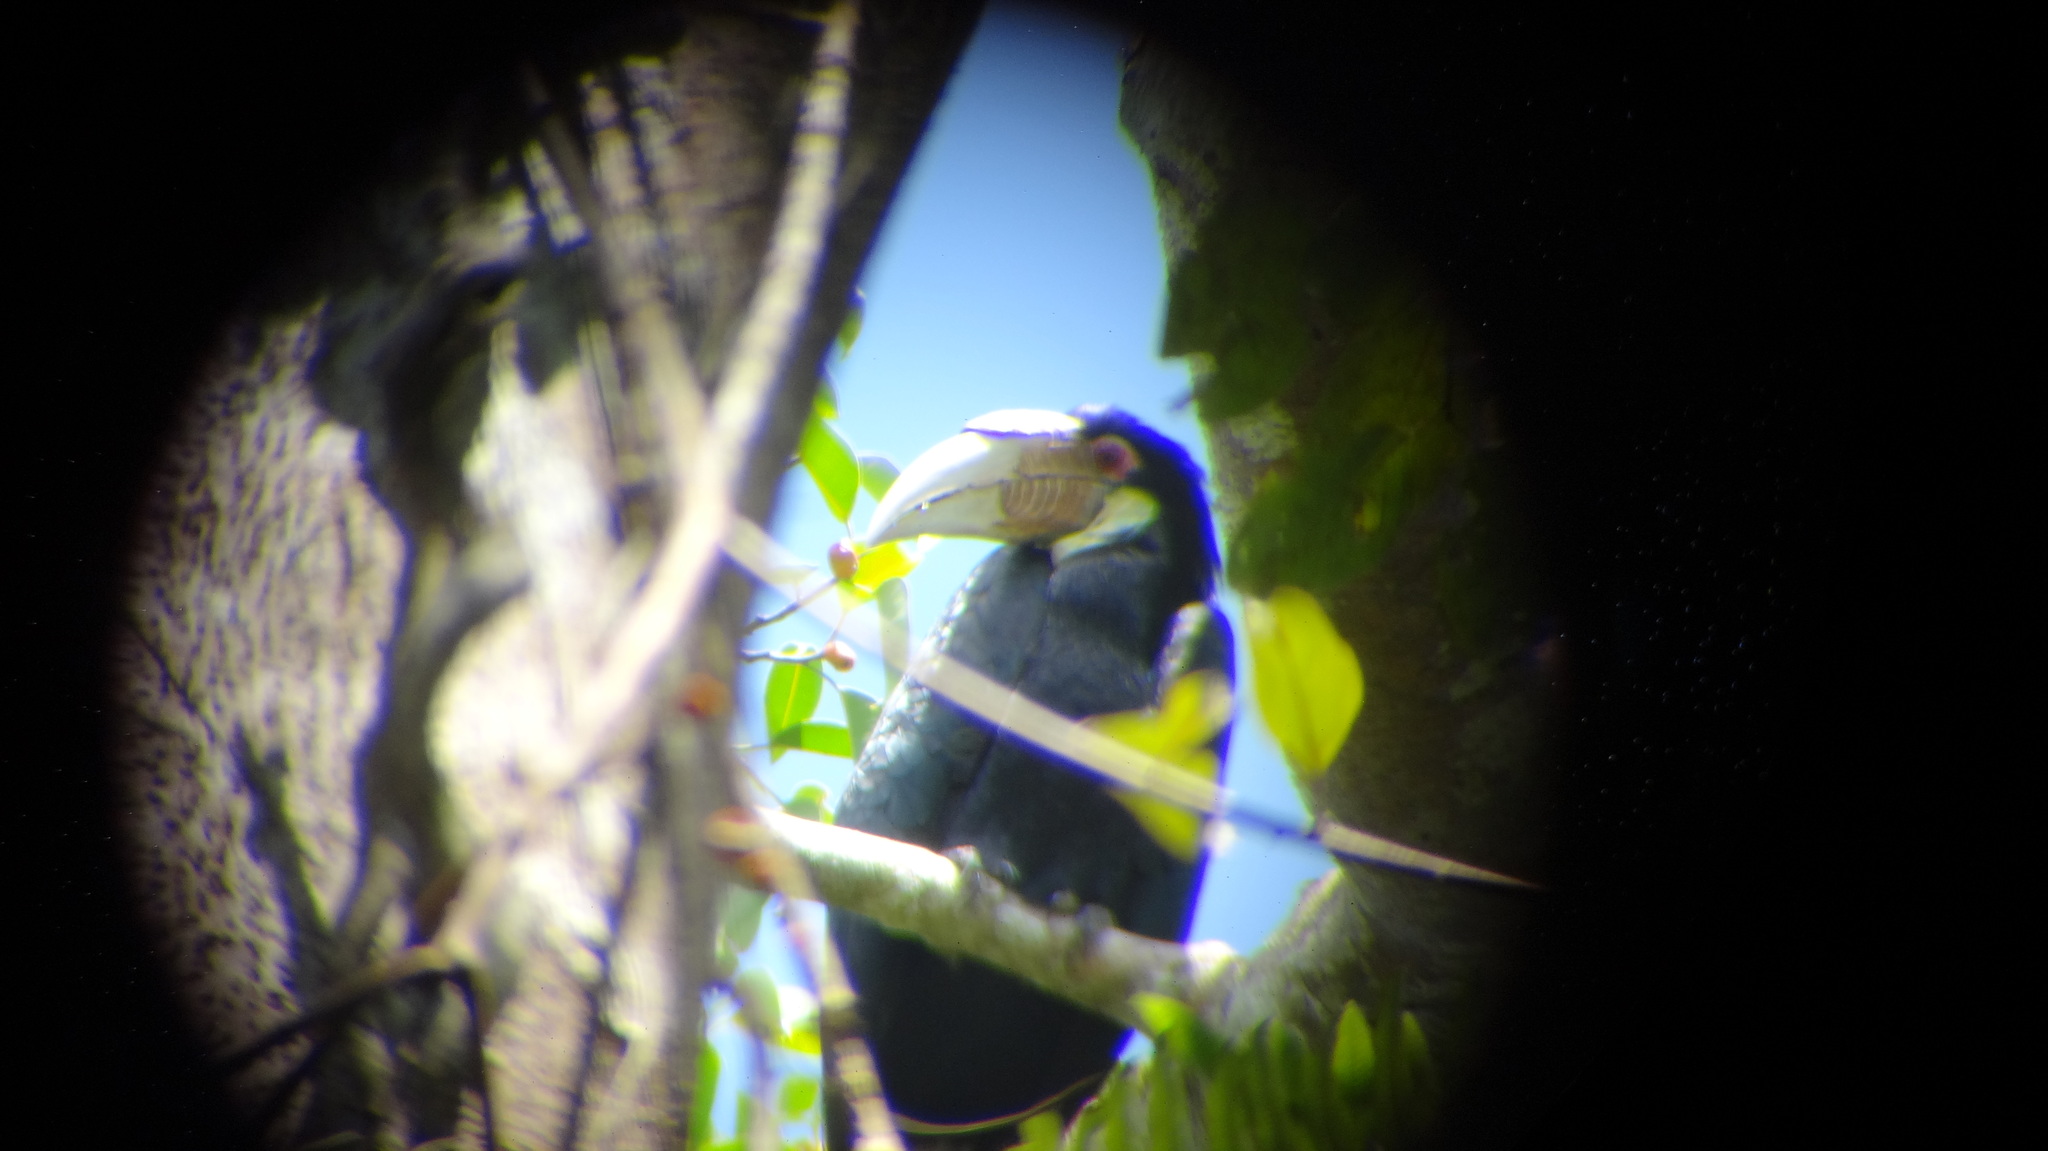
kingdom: Animalia
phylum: Chordata
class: Aves
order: Bucerotiformes
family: Bucerotidae
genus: Rhyticeros
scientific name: Rhyticeros undulatus
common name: Wreathed hornbill
